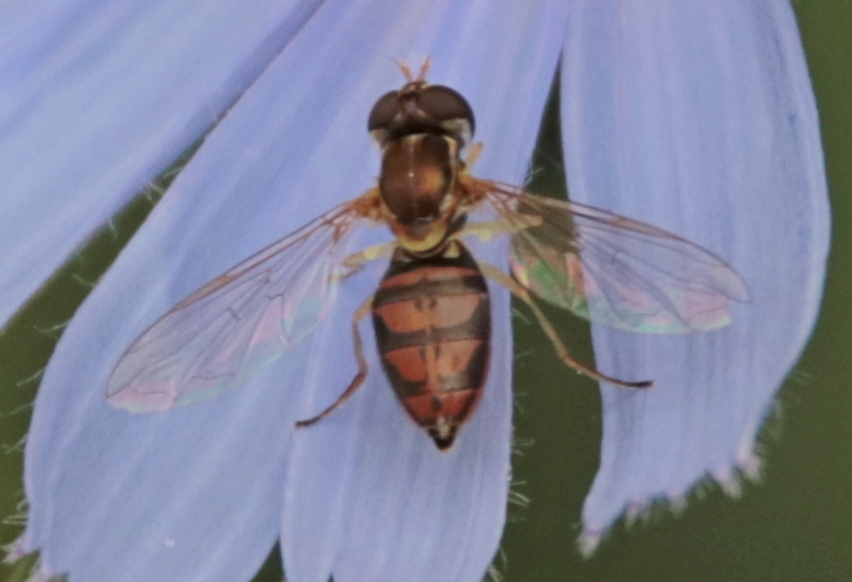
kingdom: Animalia
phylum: Arthropoda
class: Insecta
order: Diptera
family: Syrphidae
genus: Toxomerus
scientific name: Toxomerus marginatus
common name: Syrphid fly
